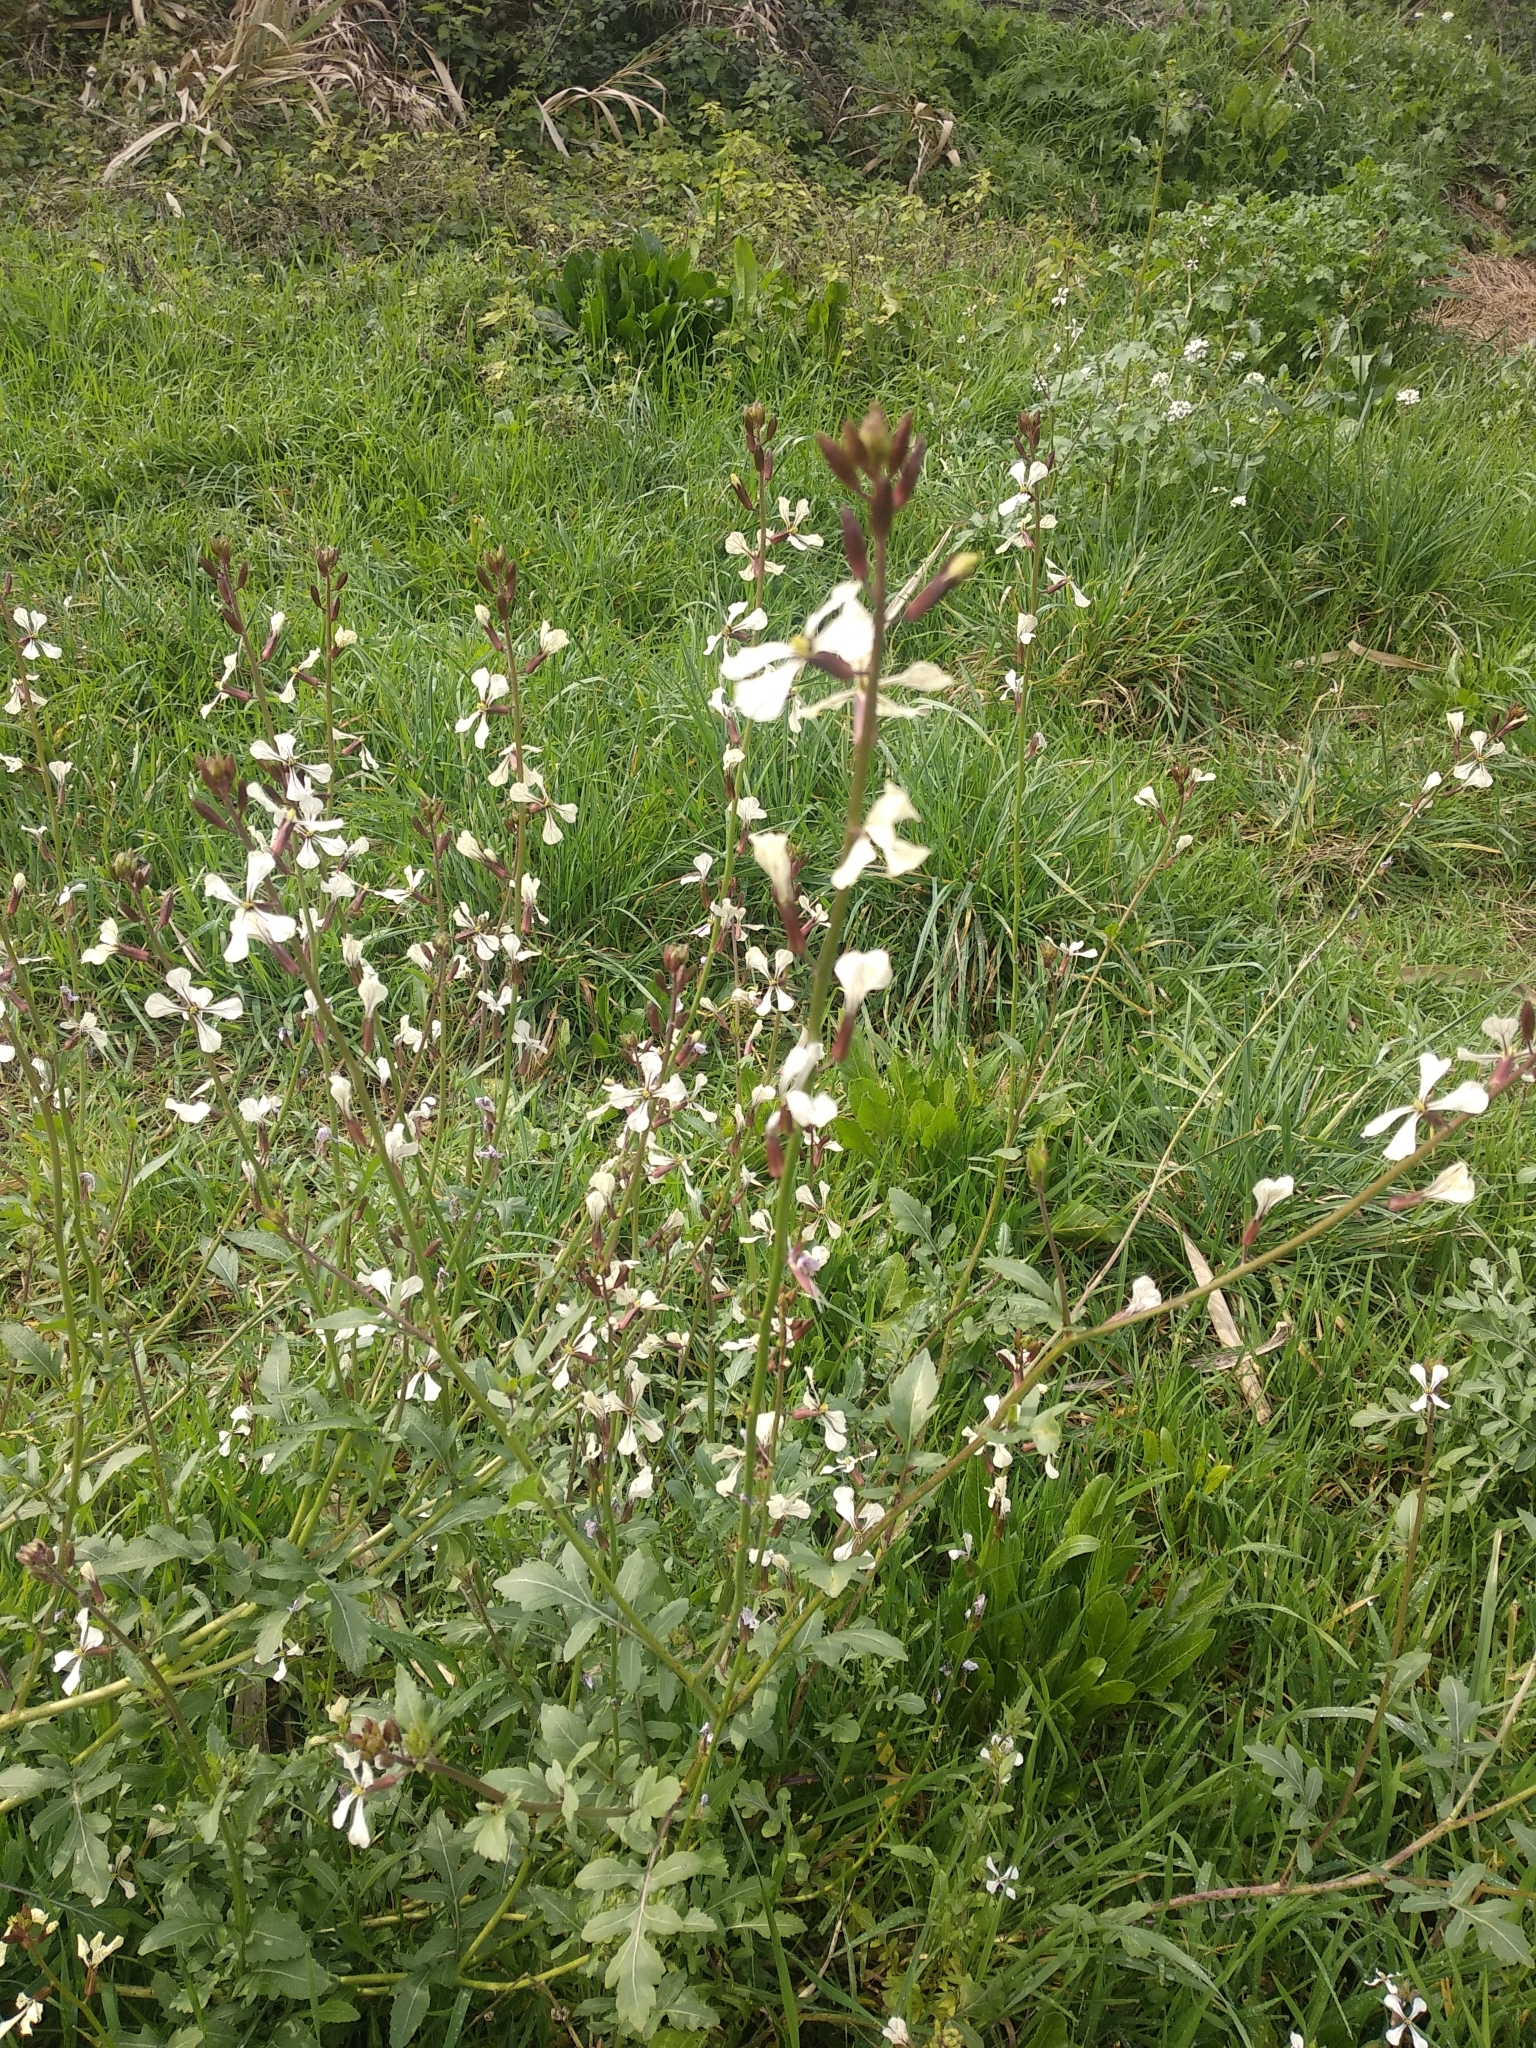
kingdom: Plantae
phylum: Tracheophyta
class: Magnoliopsida
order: Brassicales
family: Brassicaceae
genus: Eruca
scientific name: Eruca vesicaria
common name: Garden rocket
